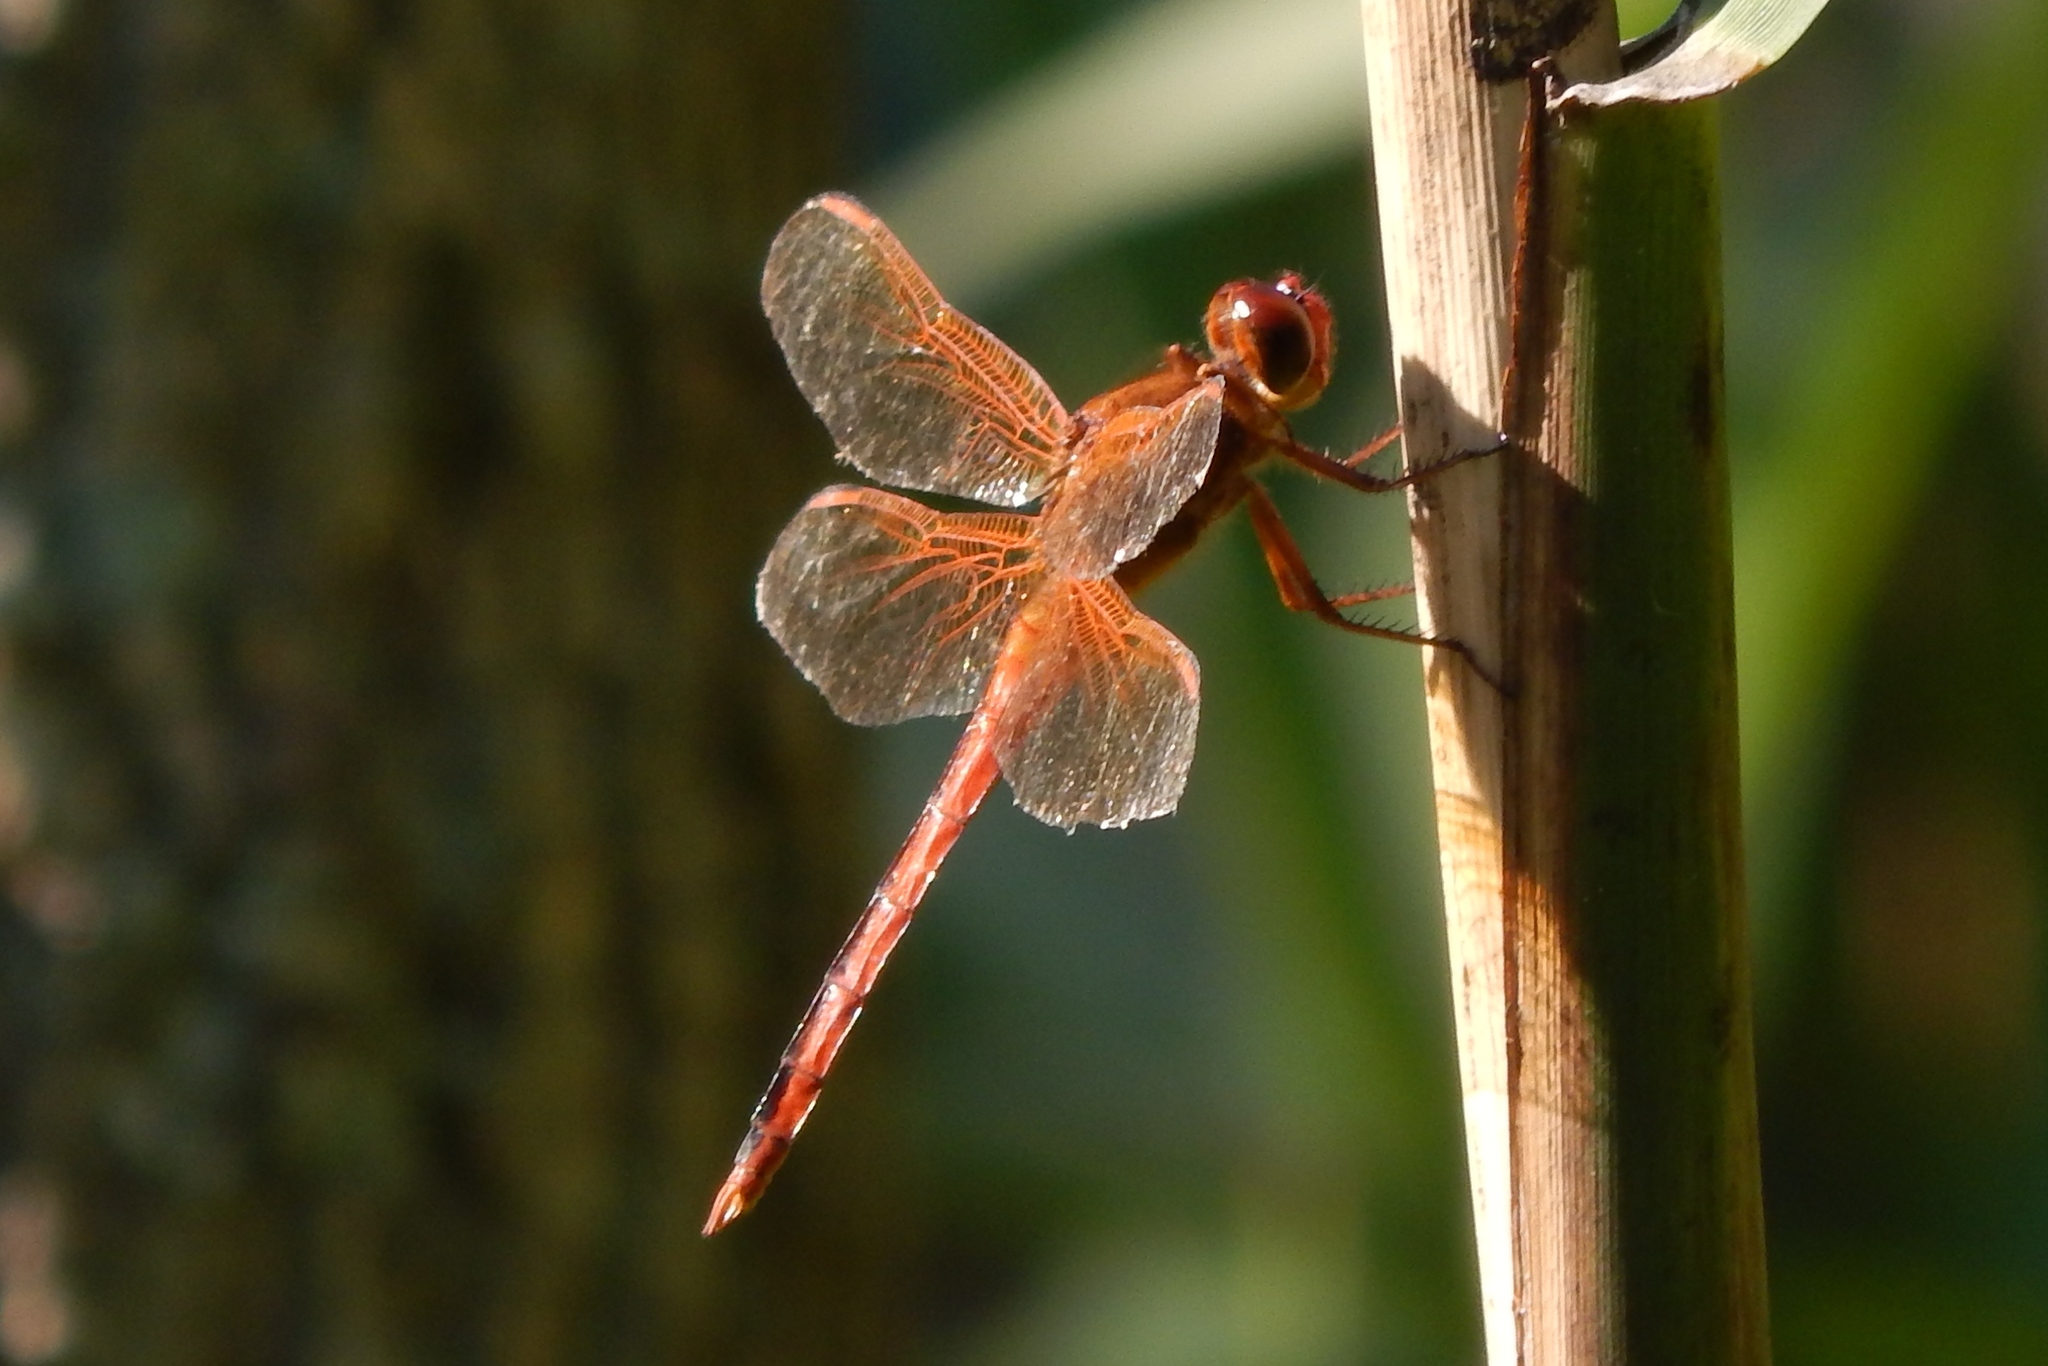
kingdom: Animalia
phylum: Arthropoda
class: Insecta
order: Odonata
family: Libellulidae
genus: Libellula
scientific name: Libellula needhami
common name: Needham's skimmer
